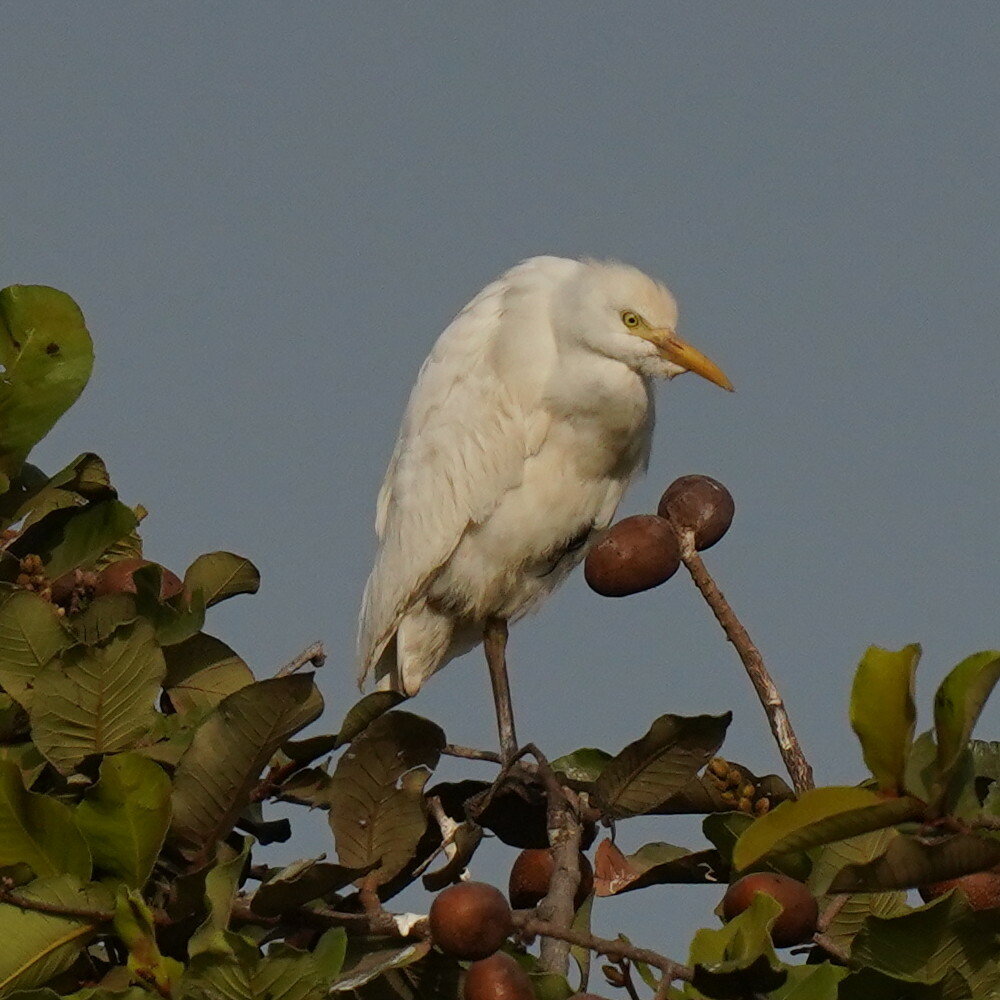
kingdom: Animalia
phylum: Chordata
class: Aves
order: Pelecaniformes
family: Ardeidae
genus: Bubulcus
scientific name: Bubulcus ibis
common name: Cattle egret
